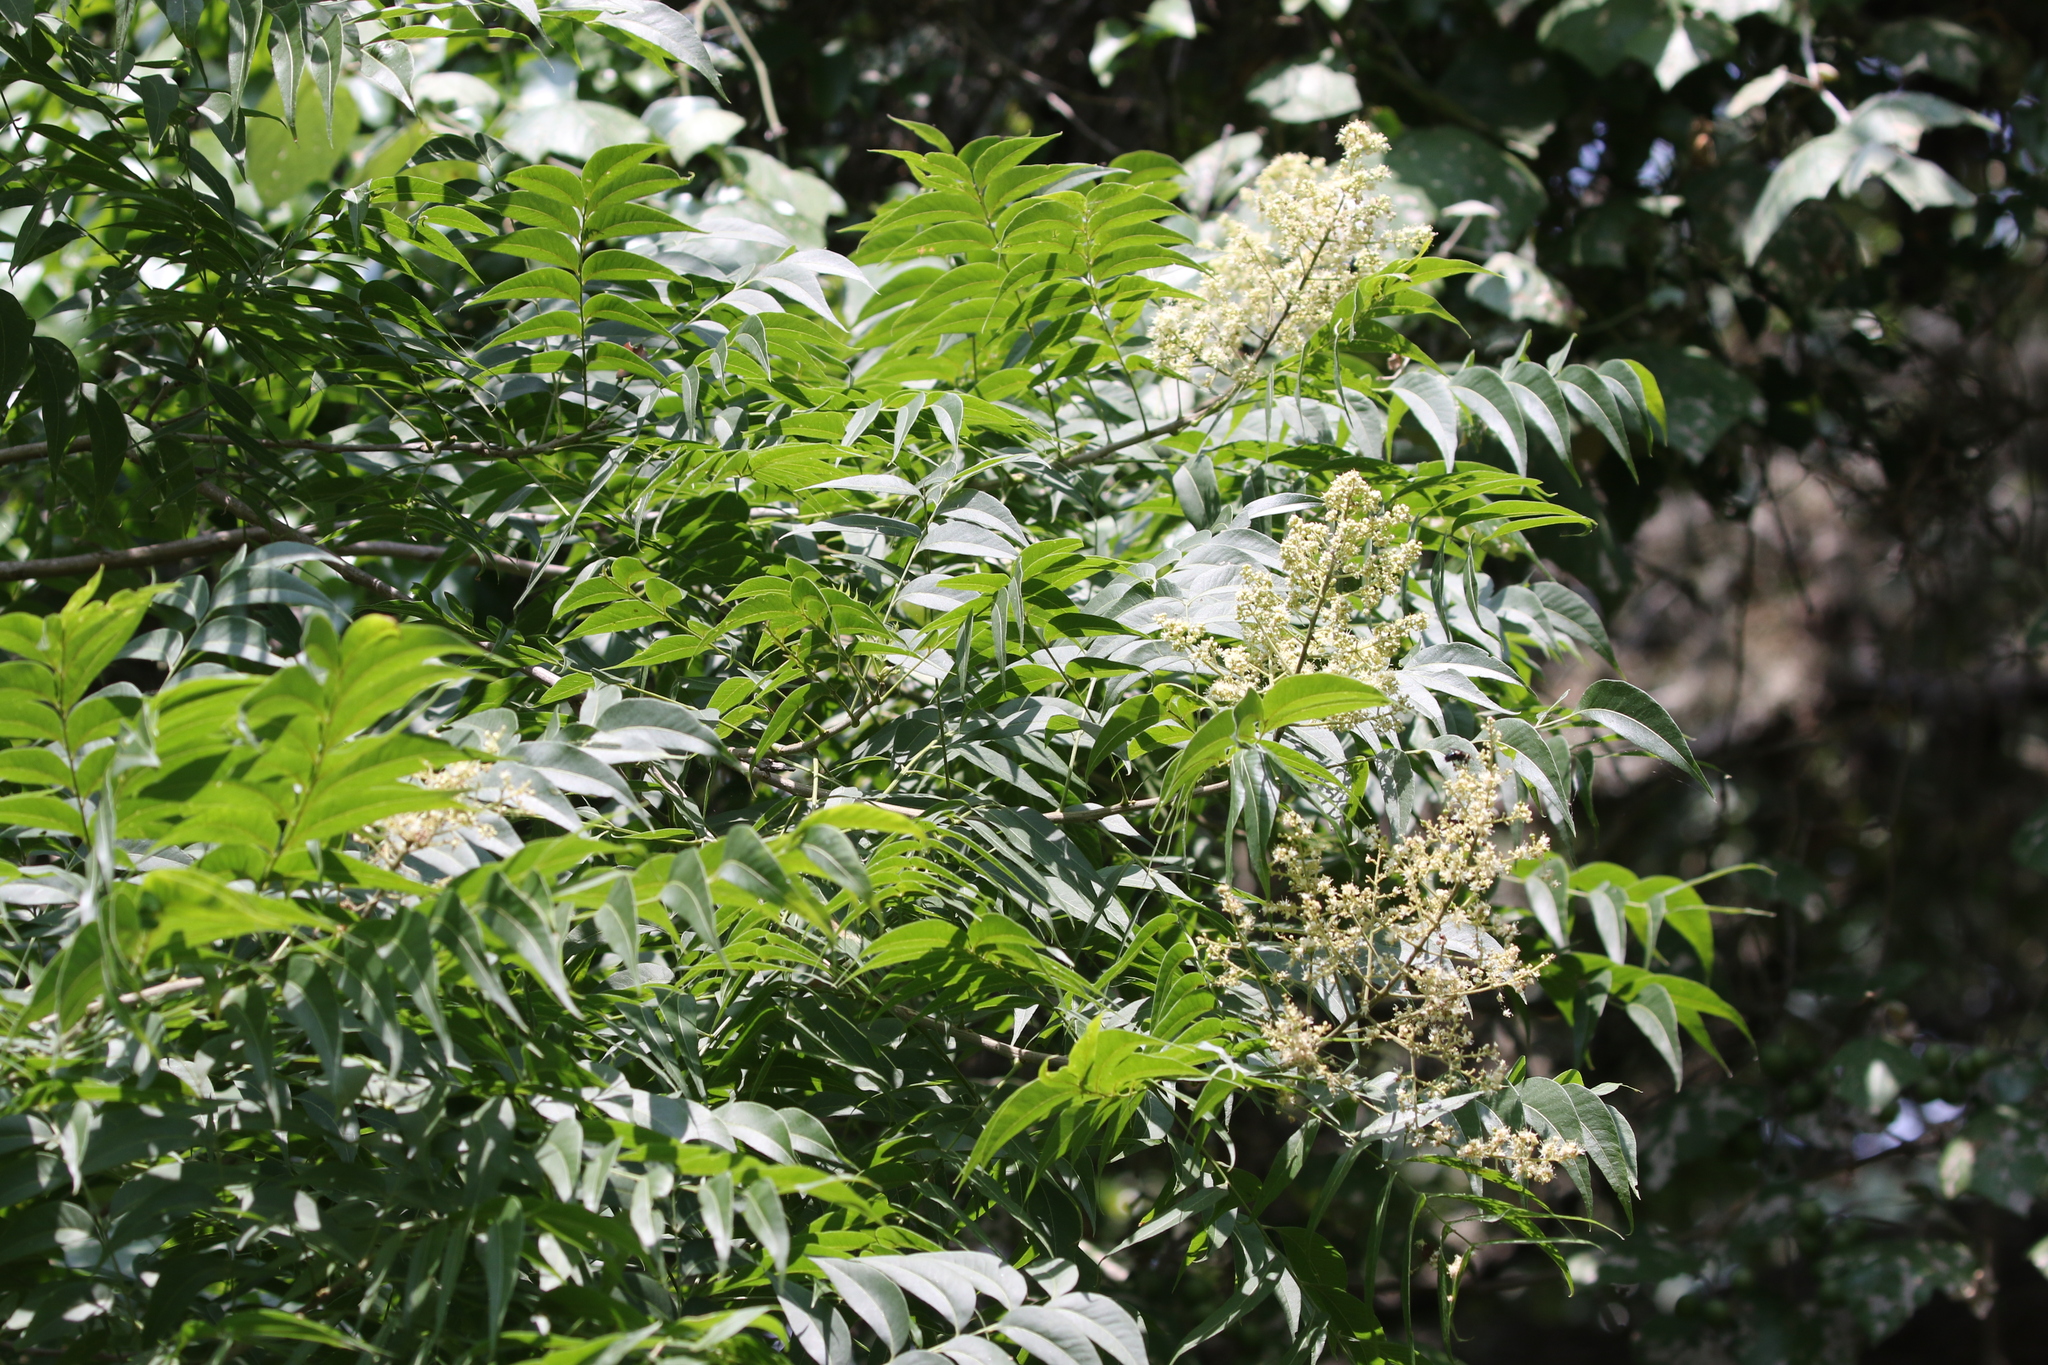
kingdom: Plantae
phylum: Tracheophyta
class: Magnoliopsida
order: Sapindales
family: Sapindaceae
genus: Sapindus
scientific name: Sapindus drummondii
